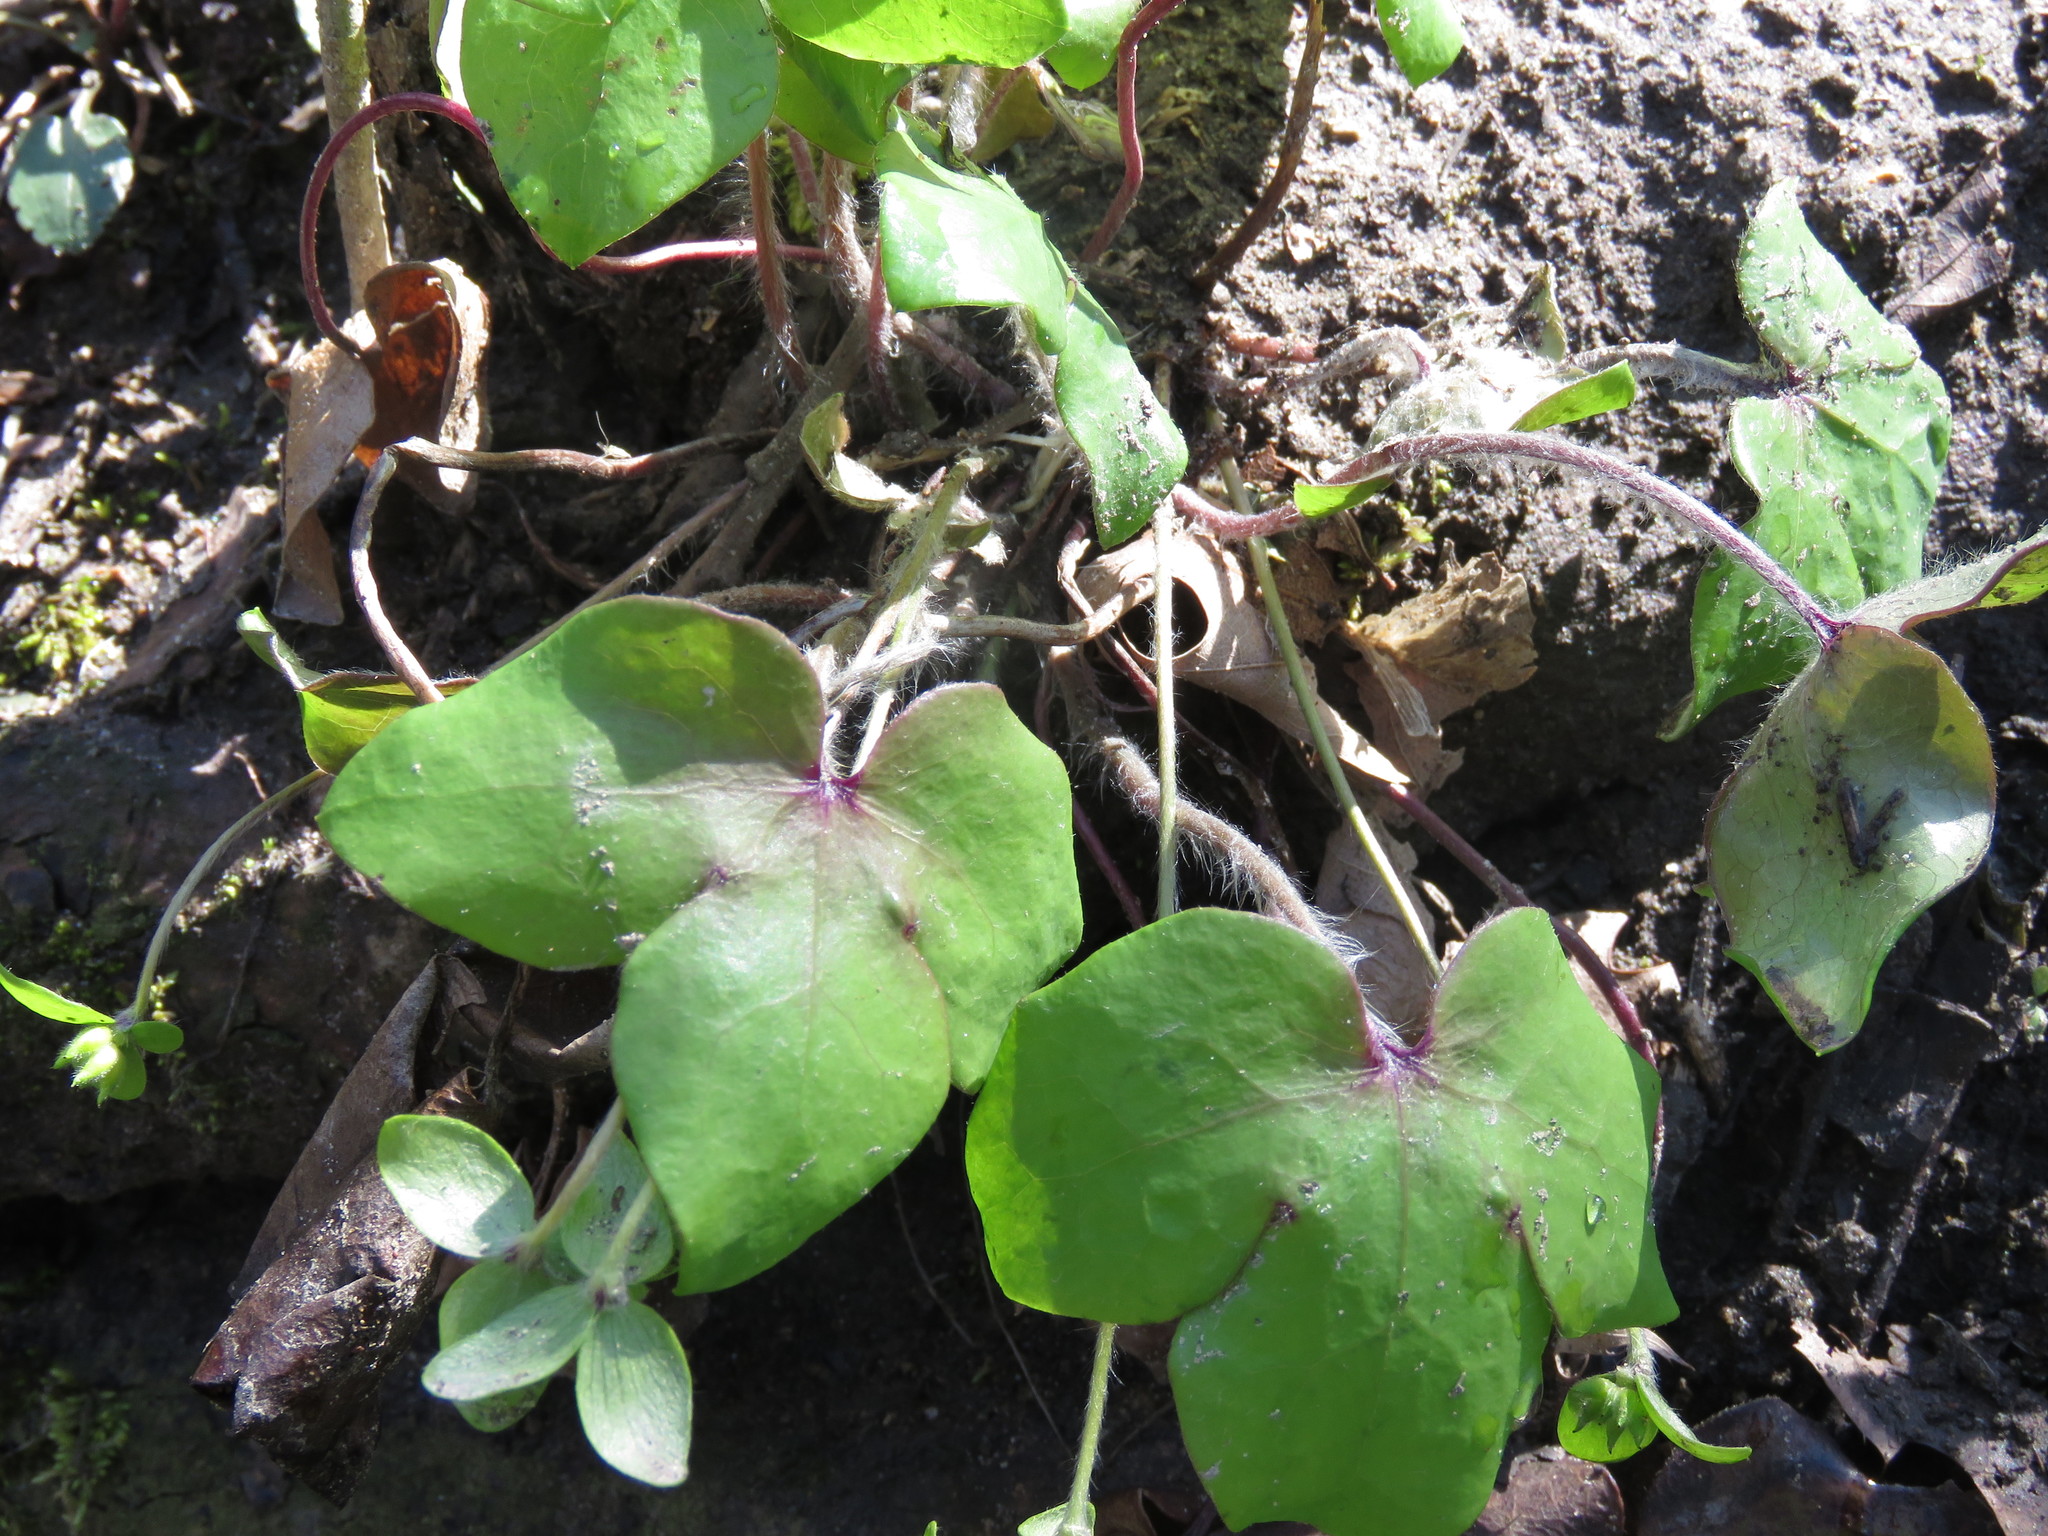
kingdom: Plantae
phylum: Tracheophyta
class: Magnoliopsida
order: Ranunculales
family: Ranunculaceae
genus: Hepatica
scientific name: Hepatica acutiloba
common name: Sharp-lobed hepatica
